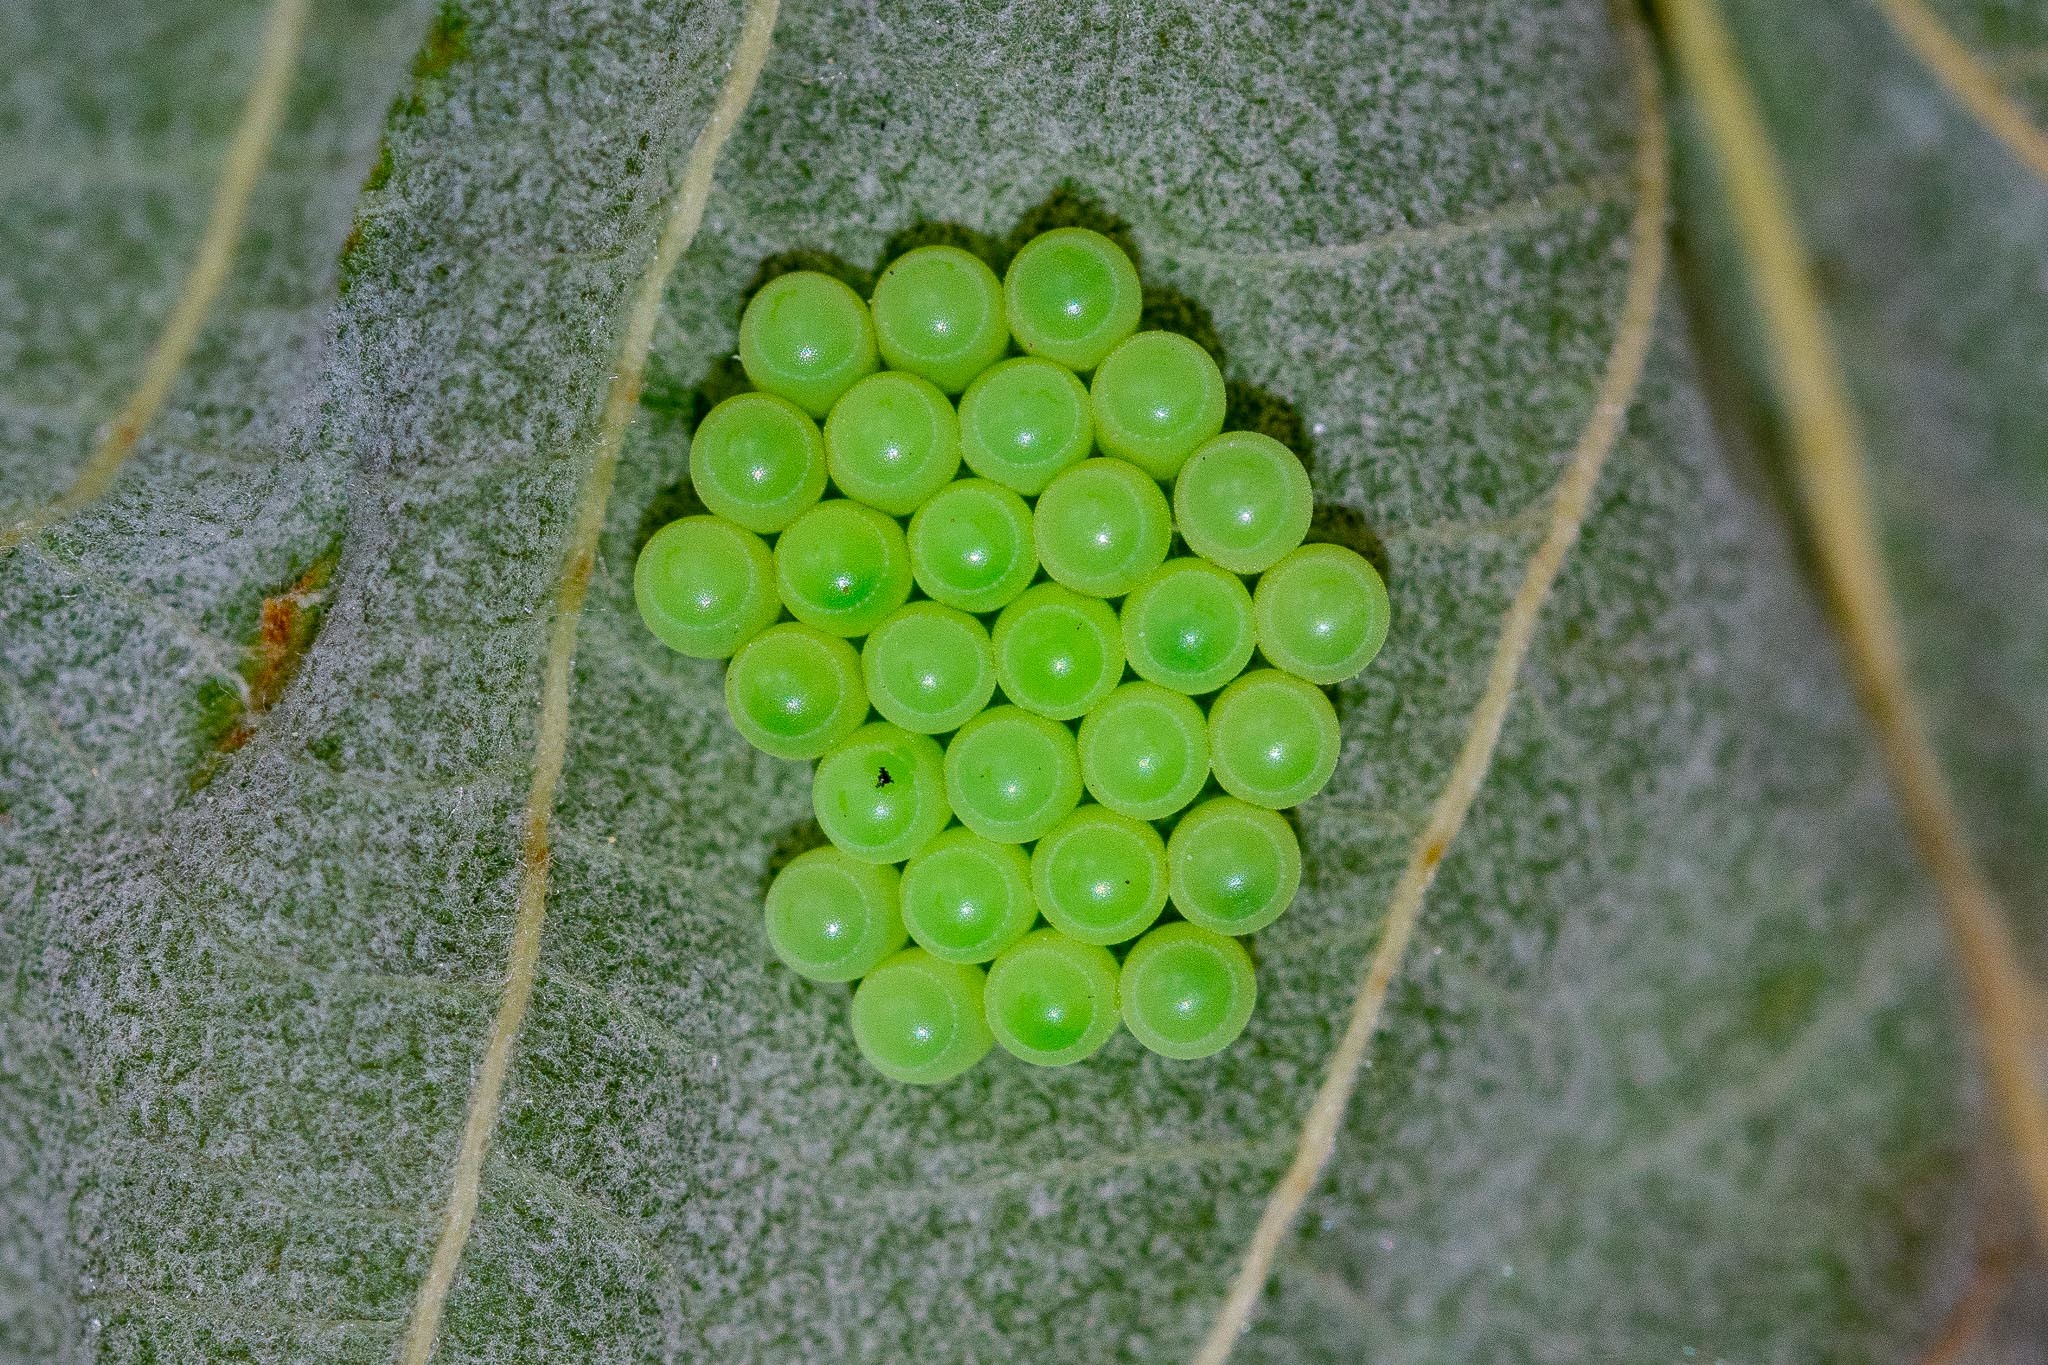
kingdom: Animalia
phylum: Arthropoda
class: Insecta
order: Hemiptera
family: Pentatomidae
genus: Palomena
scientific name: Palomena prasina
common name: Green shieldbug
